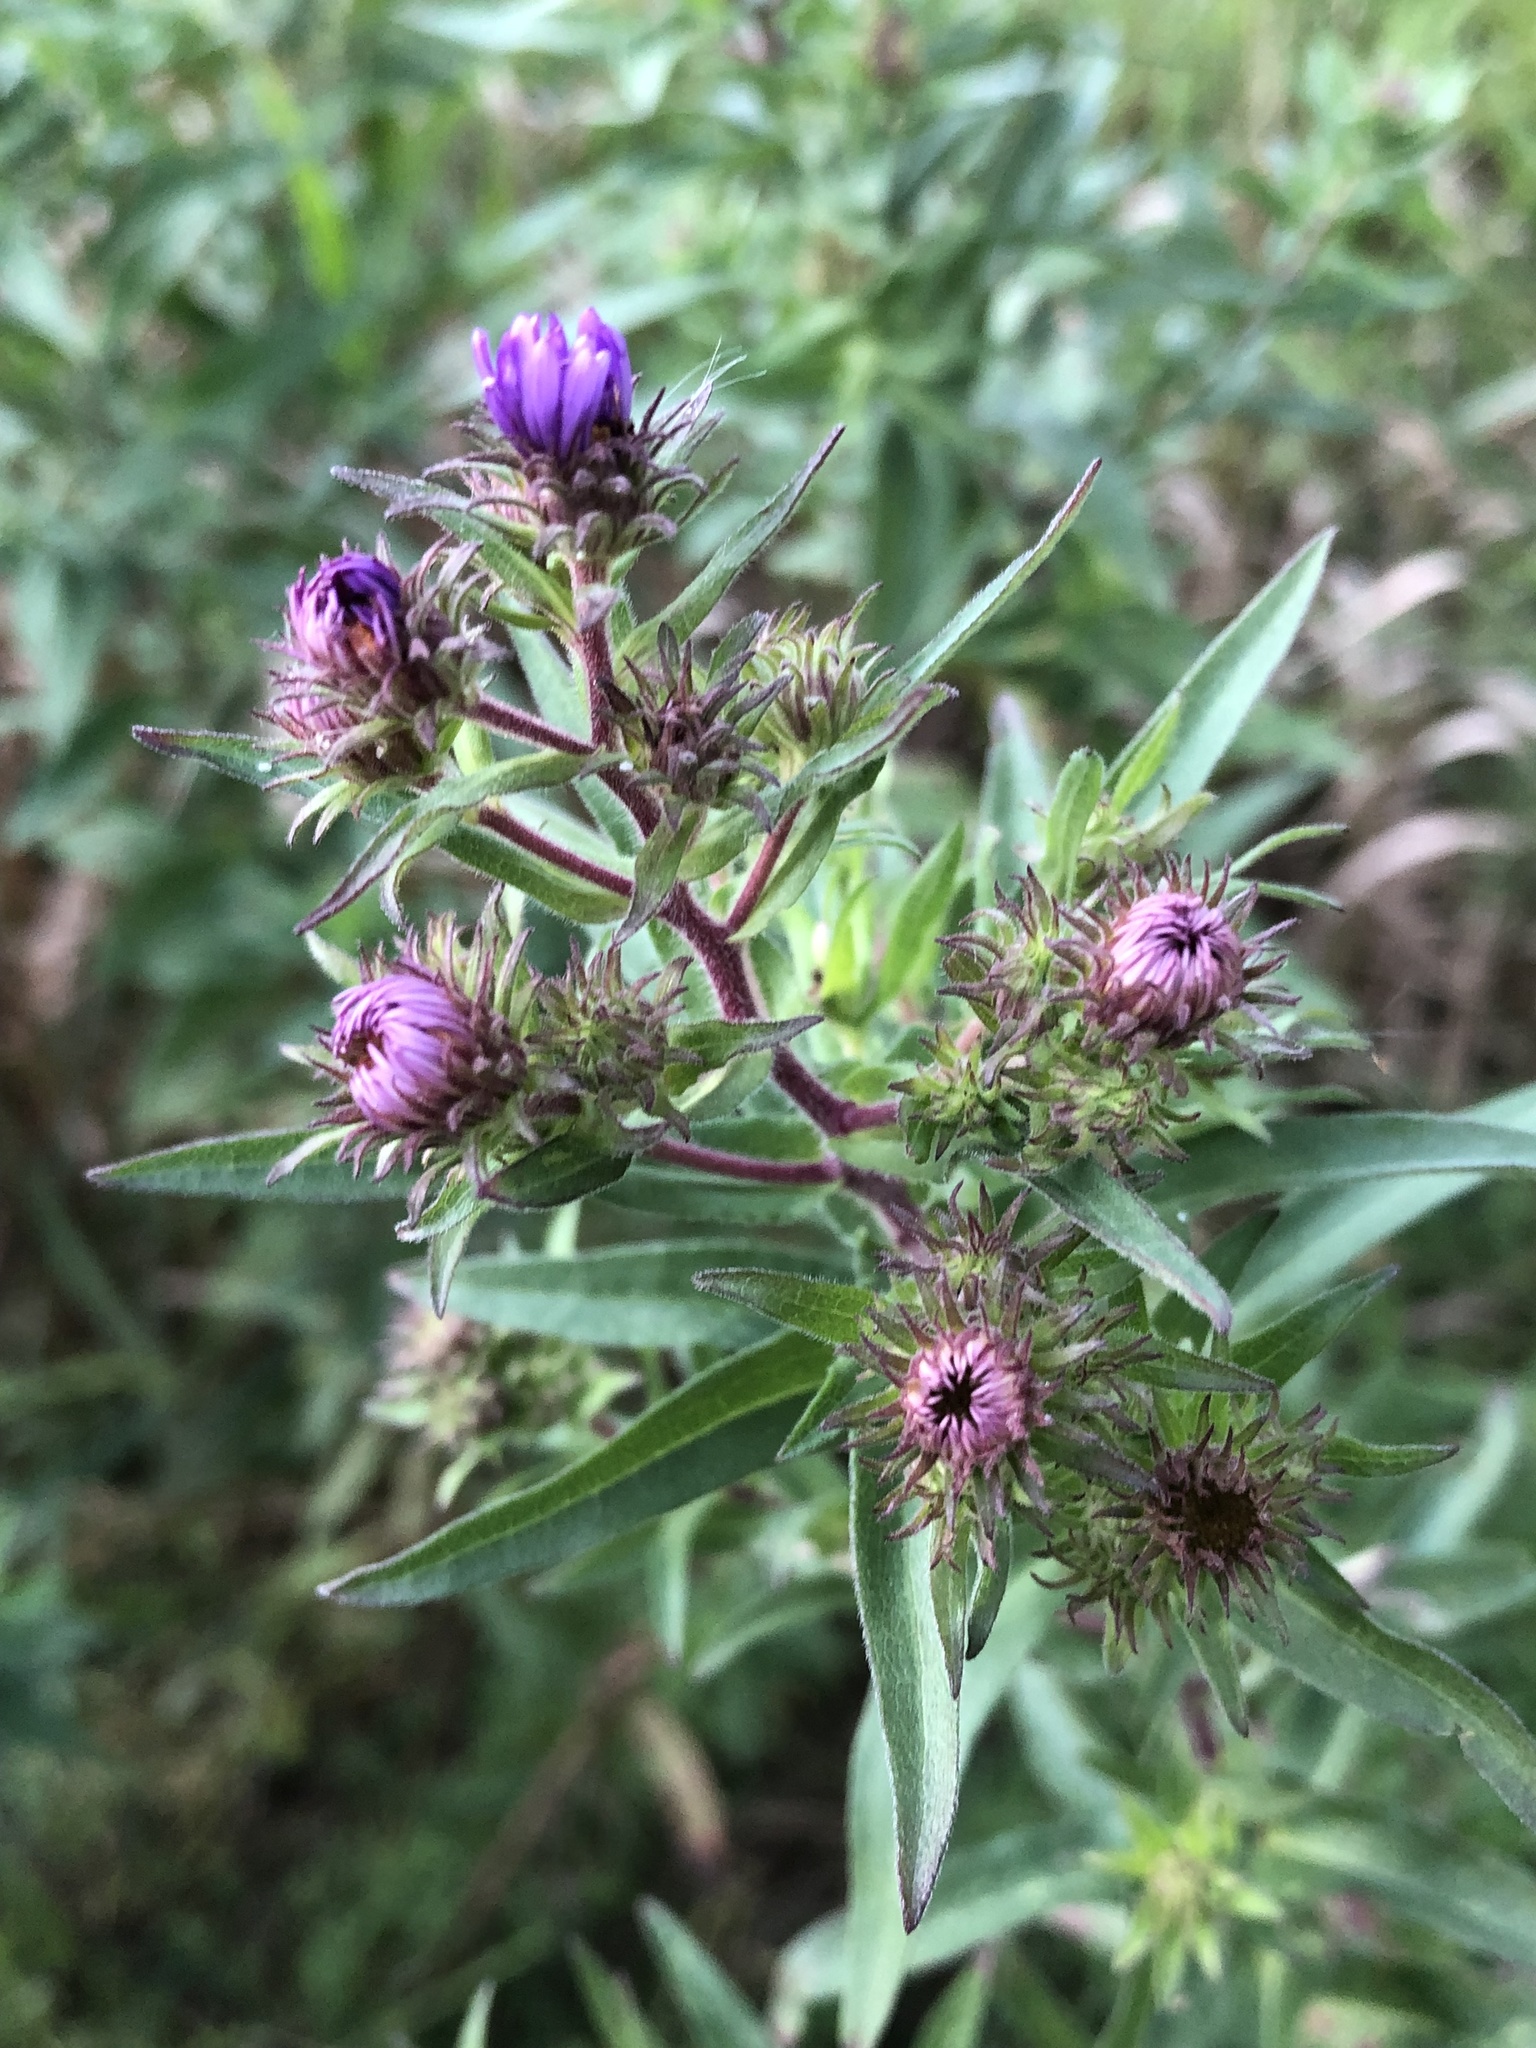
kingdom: Plantae
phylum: Tracheophyta
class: Magnoliopsida
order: Asterales
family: Asteraceae
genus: Symphyotrichum
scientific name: Symphyotrichum novae-angliae
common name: Michaelmas daisy
